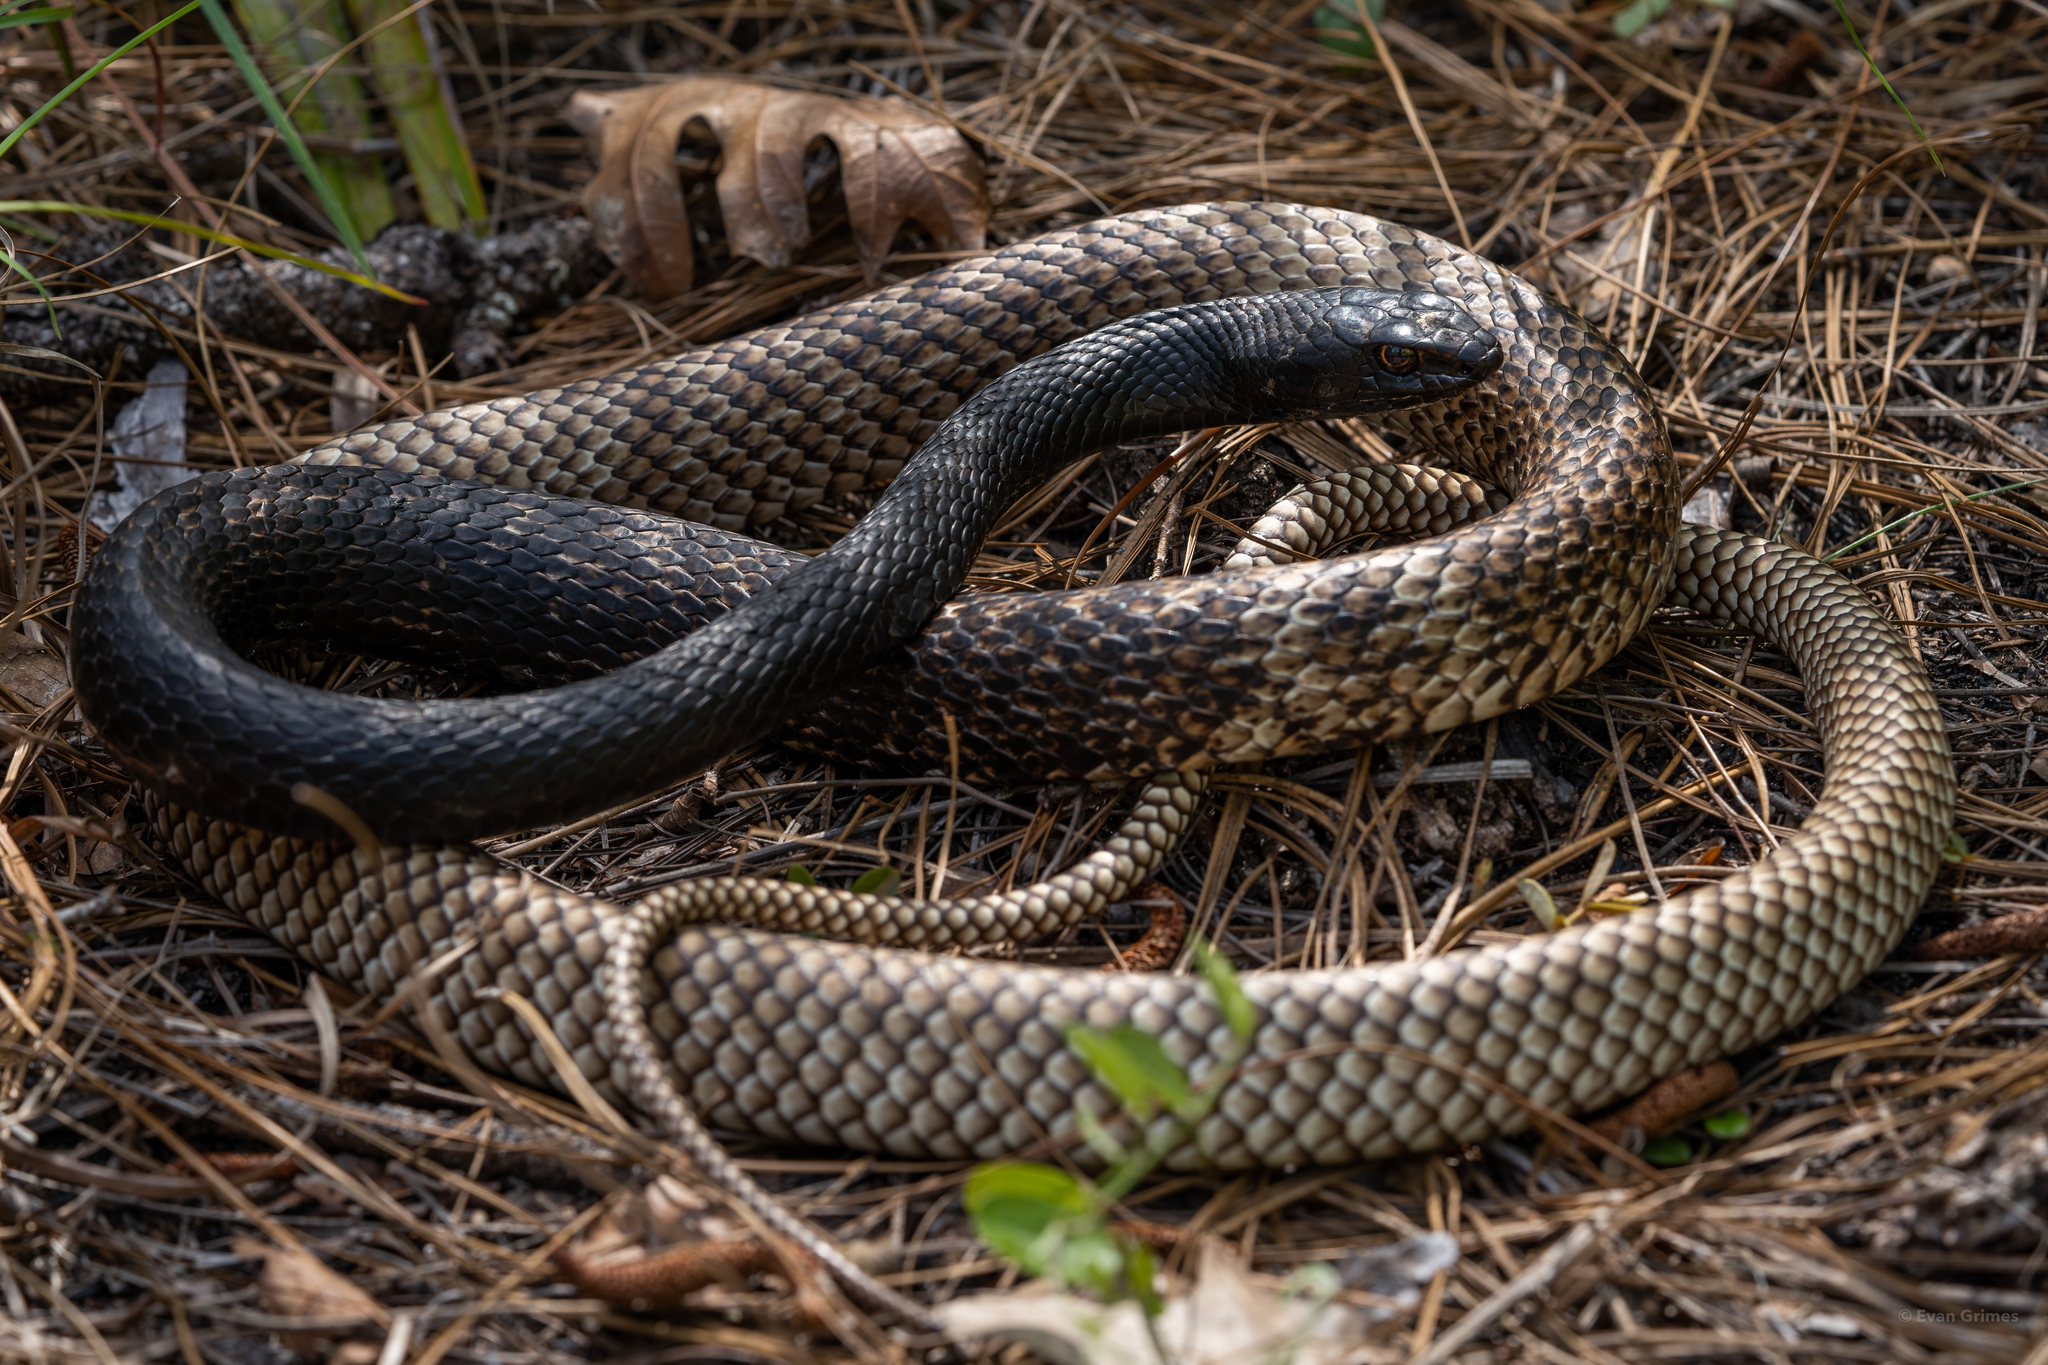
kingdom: Animalia
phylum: Chordata
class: Squamata
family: Colubridae
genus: Masticophis
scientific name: Masticophis flagellum
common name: Coachwhip
